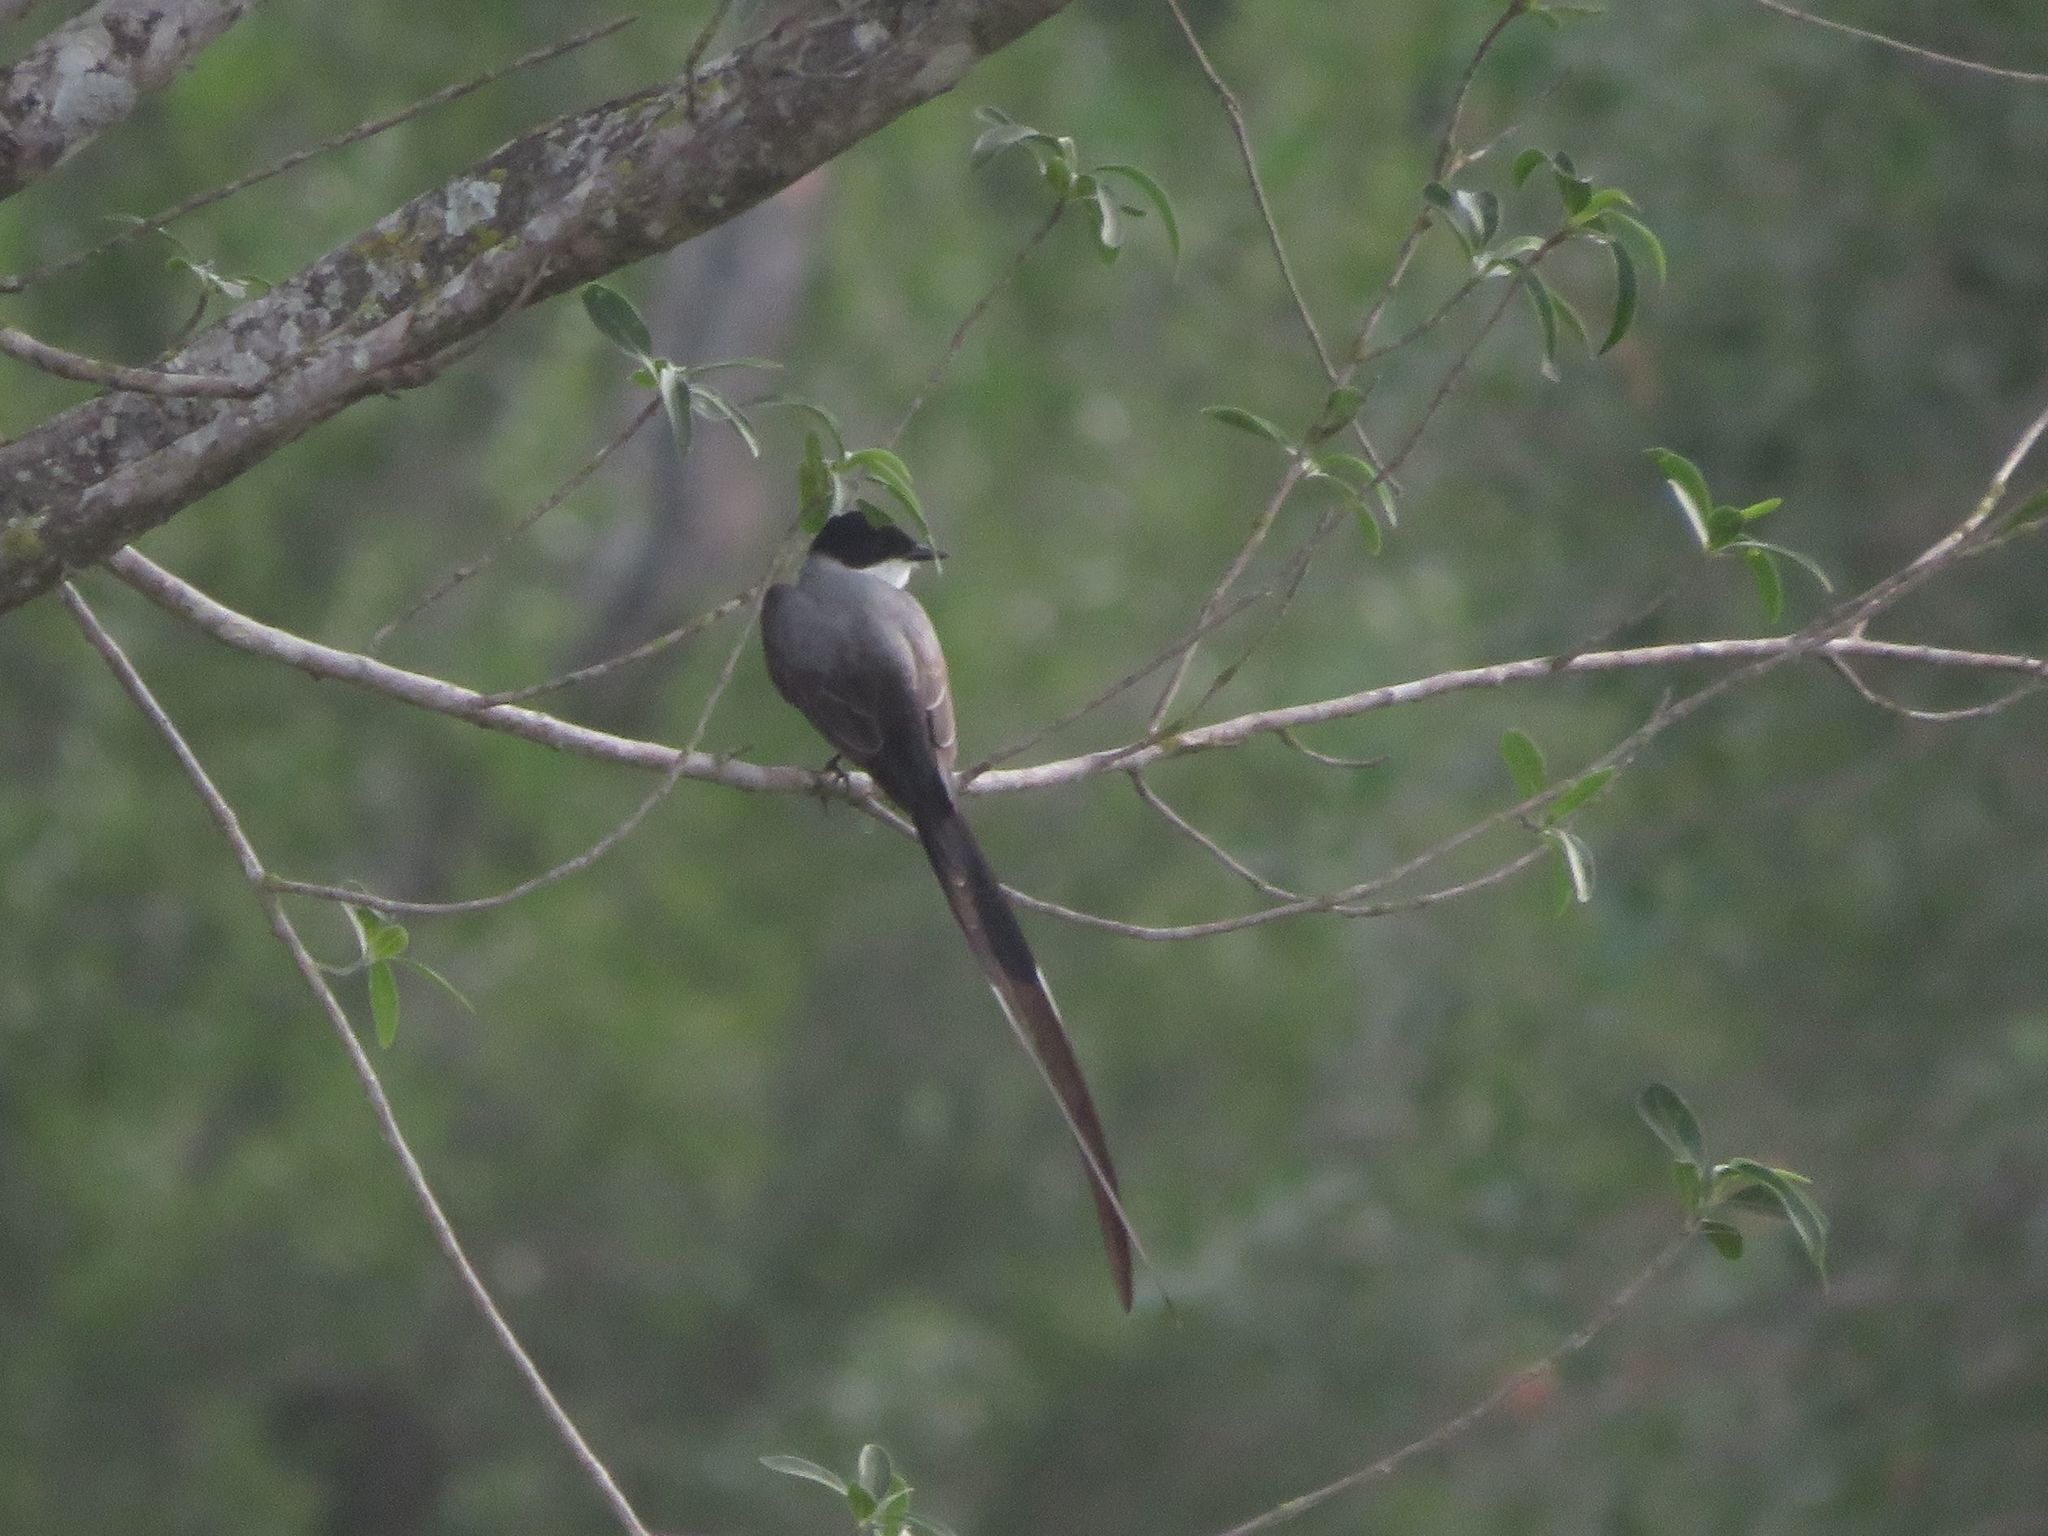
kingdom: Animalia
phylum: Chordata
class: Aves
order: Passeriformes
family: Tyrannidae
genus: Tyrannus
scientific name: Tyrannus savana
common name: Fork-tailed flycatcher
